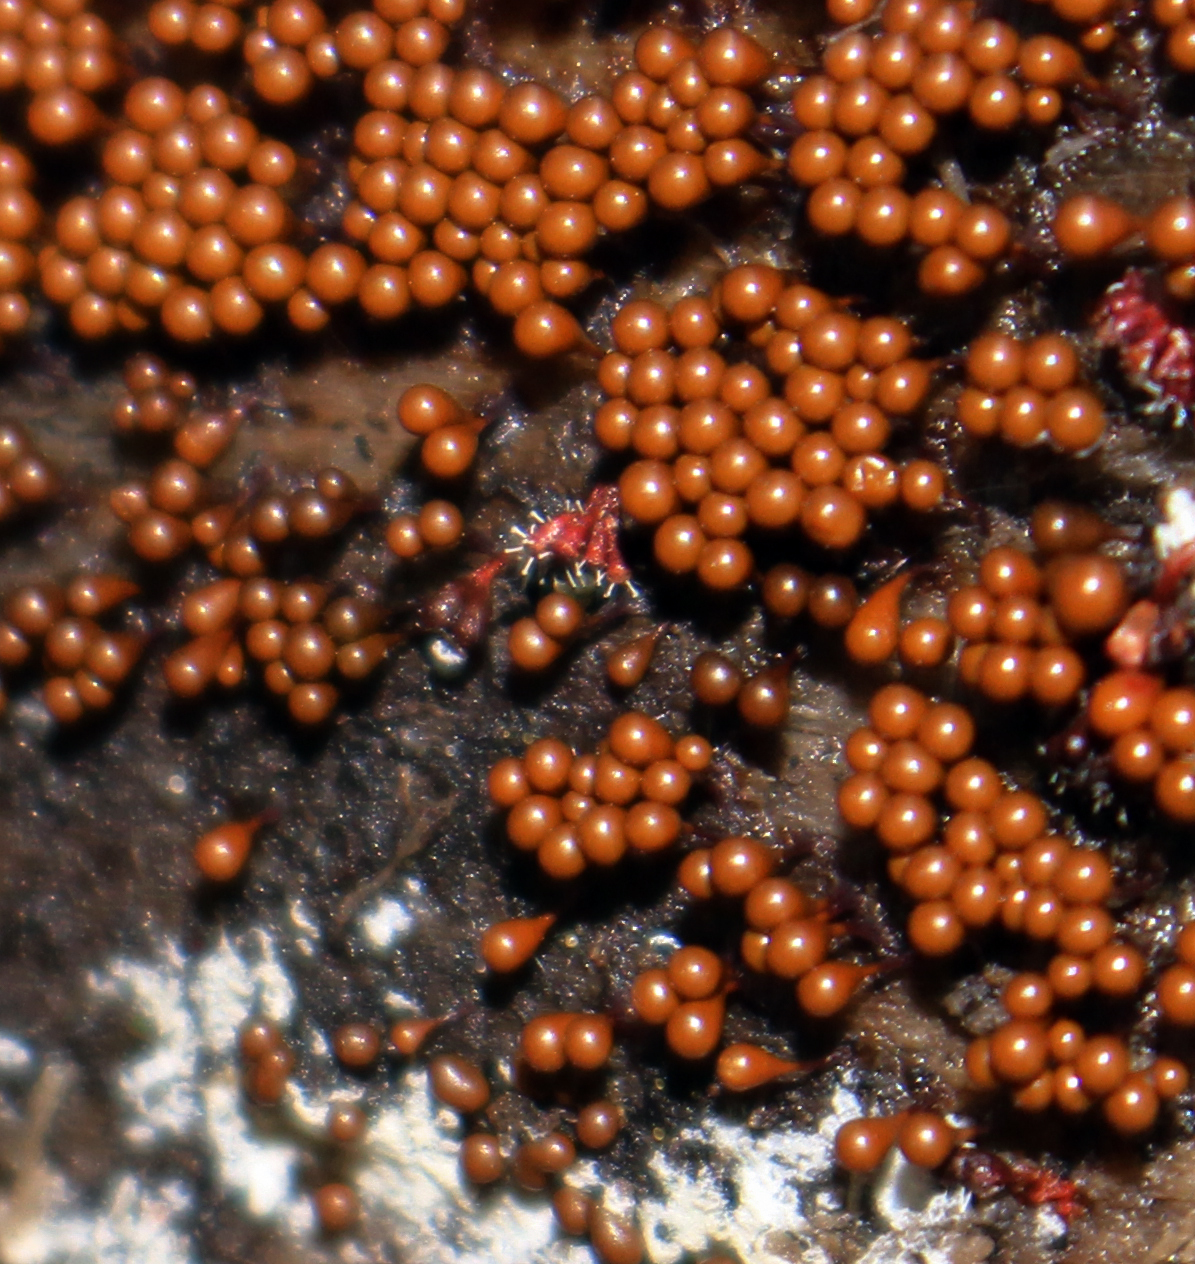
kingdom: Fungi
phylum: Ascomycota
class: Sordariomycetes
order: Hypocreales
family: Ophiocordycipitaceae
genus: Polycephalomyces
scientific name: Polycephalomyces tomentosus
